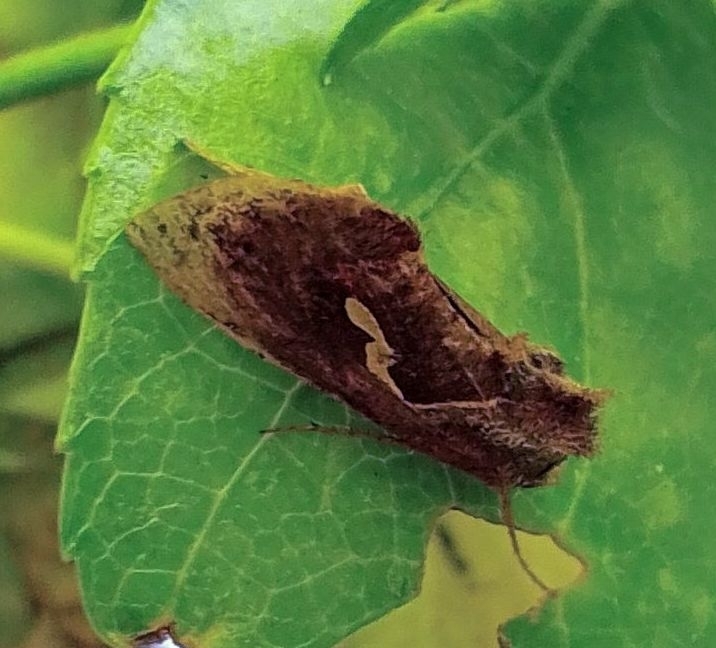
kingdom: Animalia
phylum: Arthropoda
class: Insecta
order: Lepidoptera
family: Noctuidae
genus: Macdunnoughia
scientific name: Macdunnoughia confusa
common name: Dewick's plusia
